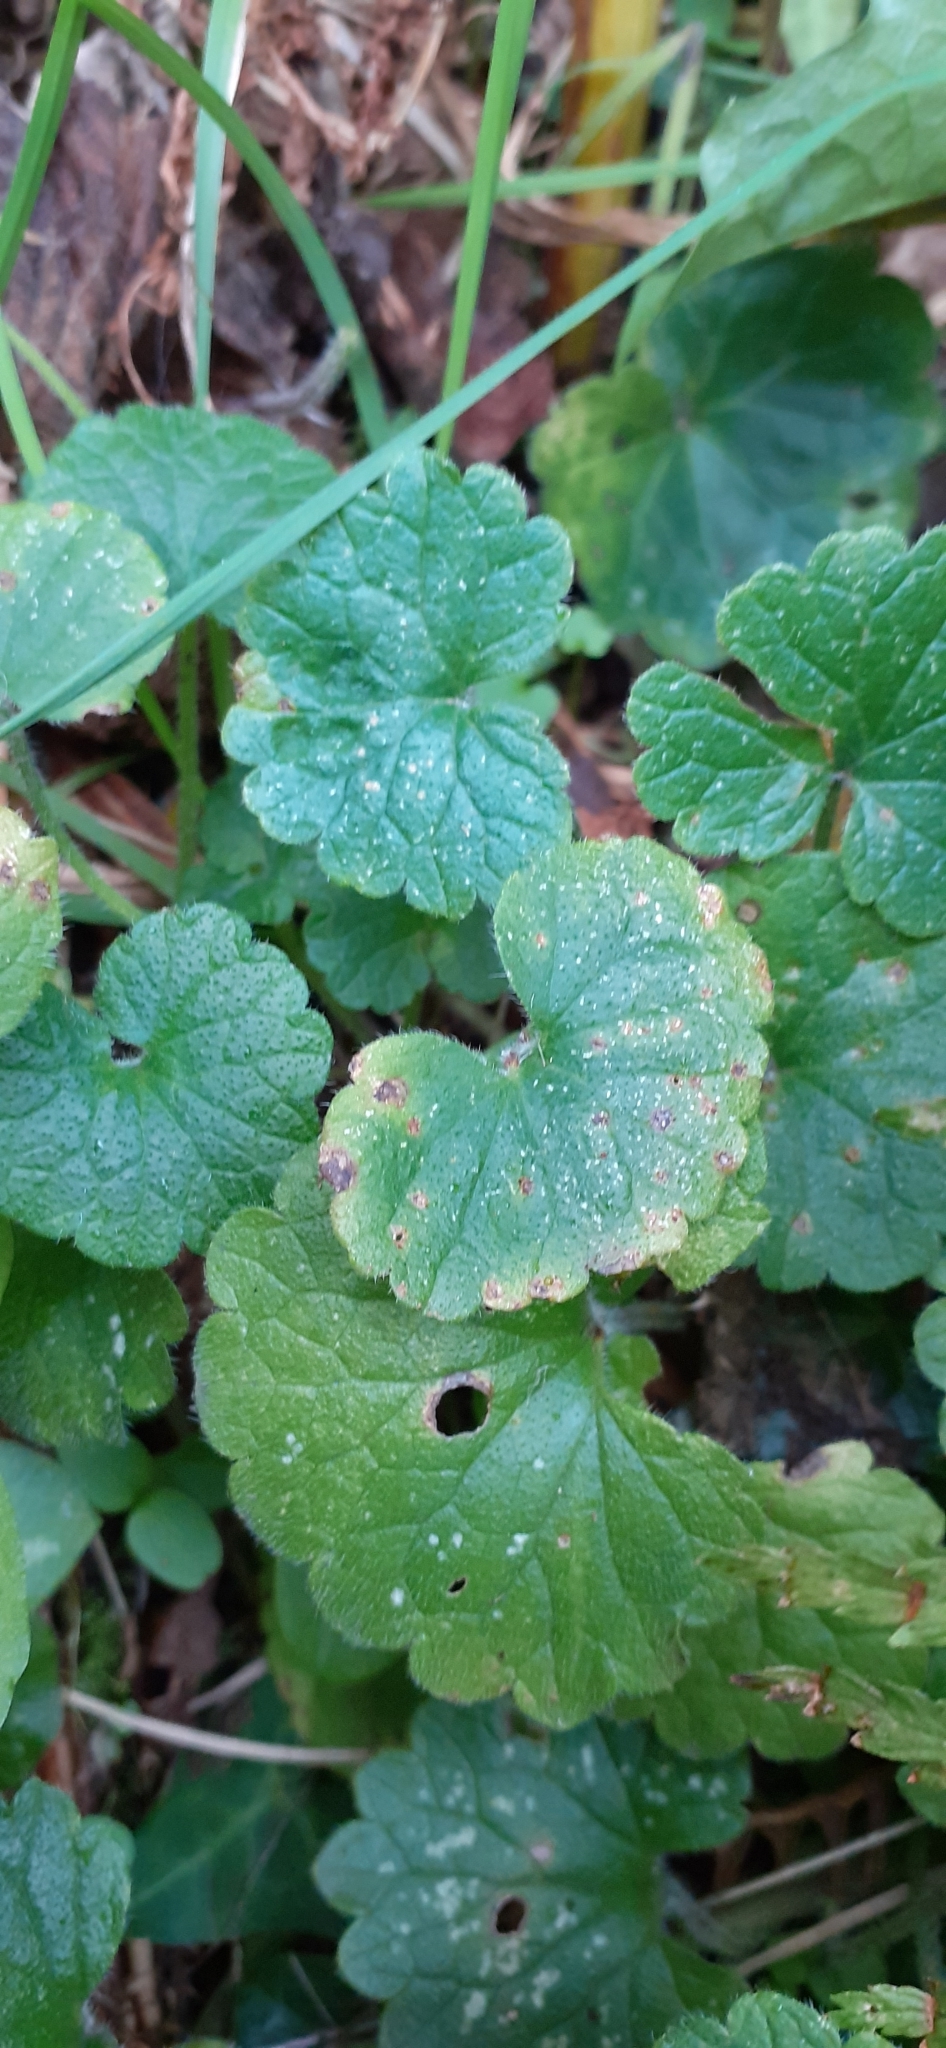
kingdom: Plantae
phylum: Tracheophyta
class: Magnoliopsida
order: Lamiales
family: Lamiaceae
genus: Glechoma
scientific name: Glechoma hederacea
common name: Ground ivy
